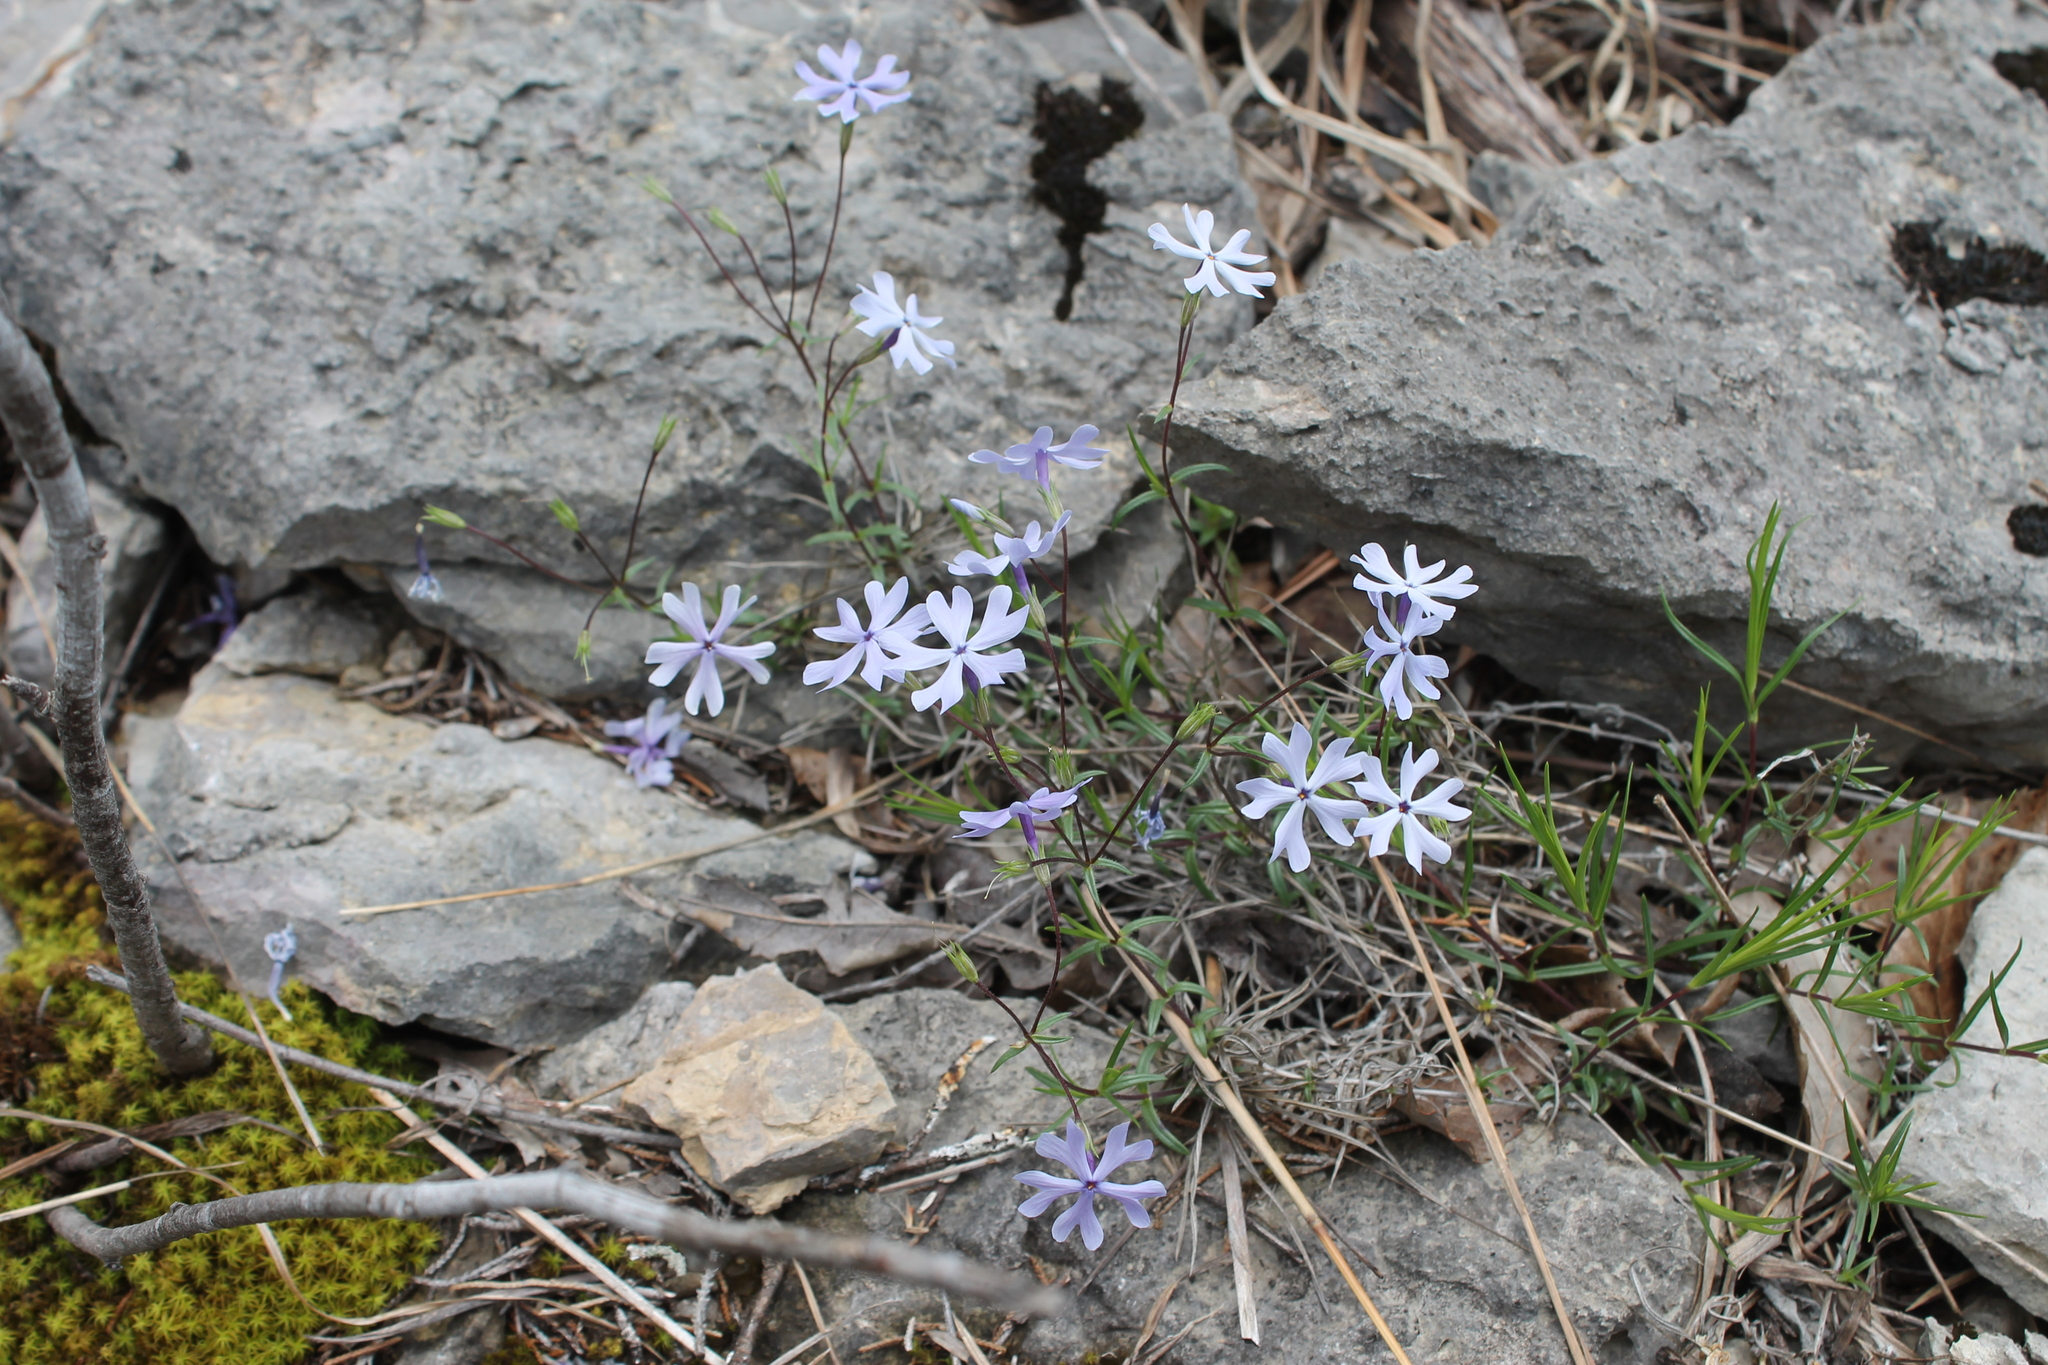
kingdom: Plantae
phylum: Tracheophyta
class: Magnoliopsida
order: Ericales
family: Polemoniaceae
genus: Phlox
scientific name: Phlox bifida
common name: Sand phlox
